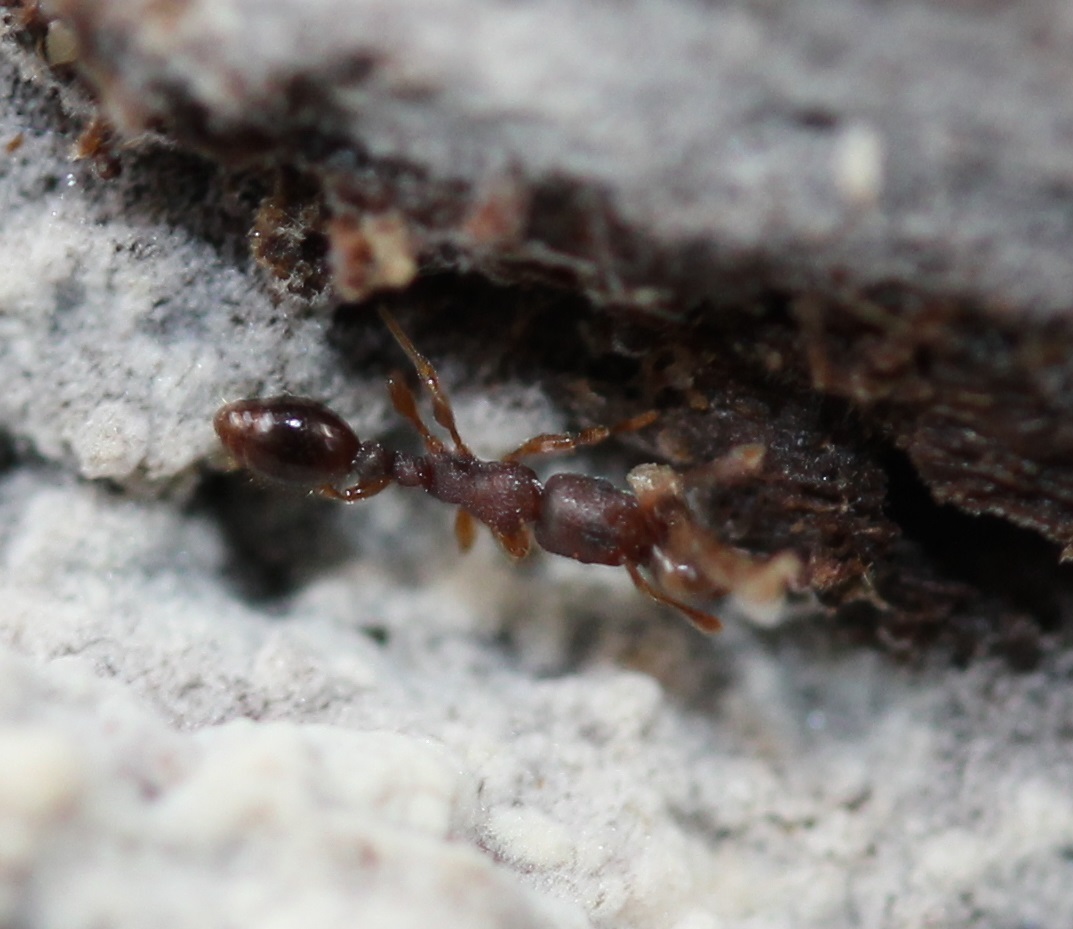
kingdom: Animalia
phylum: Arthropoda
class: Insecta
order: Hymenoptera
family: Formicidae
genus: Vollenhovia
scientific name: Vollenhovia emeryi
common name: Ant
